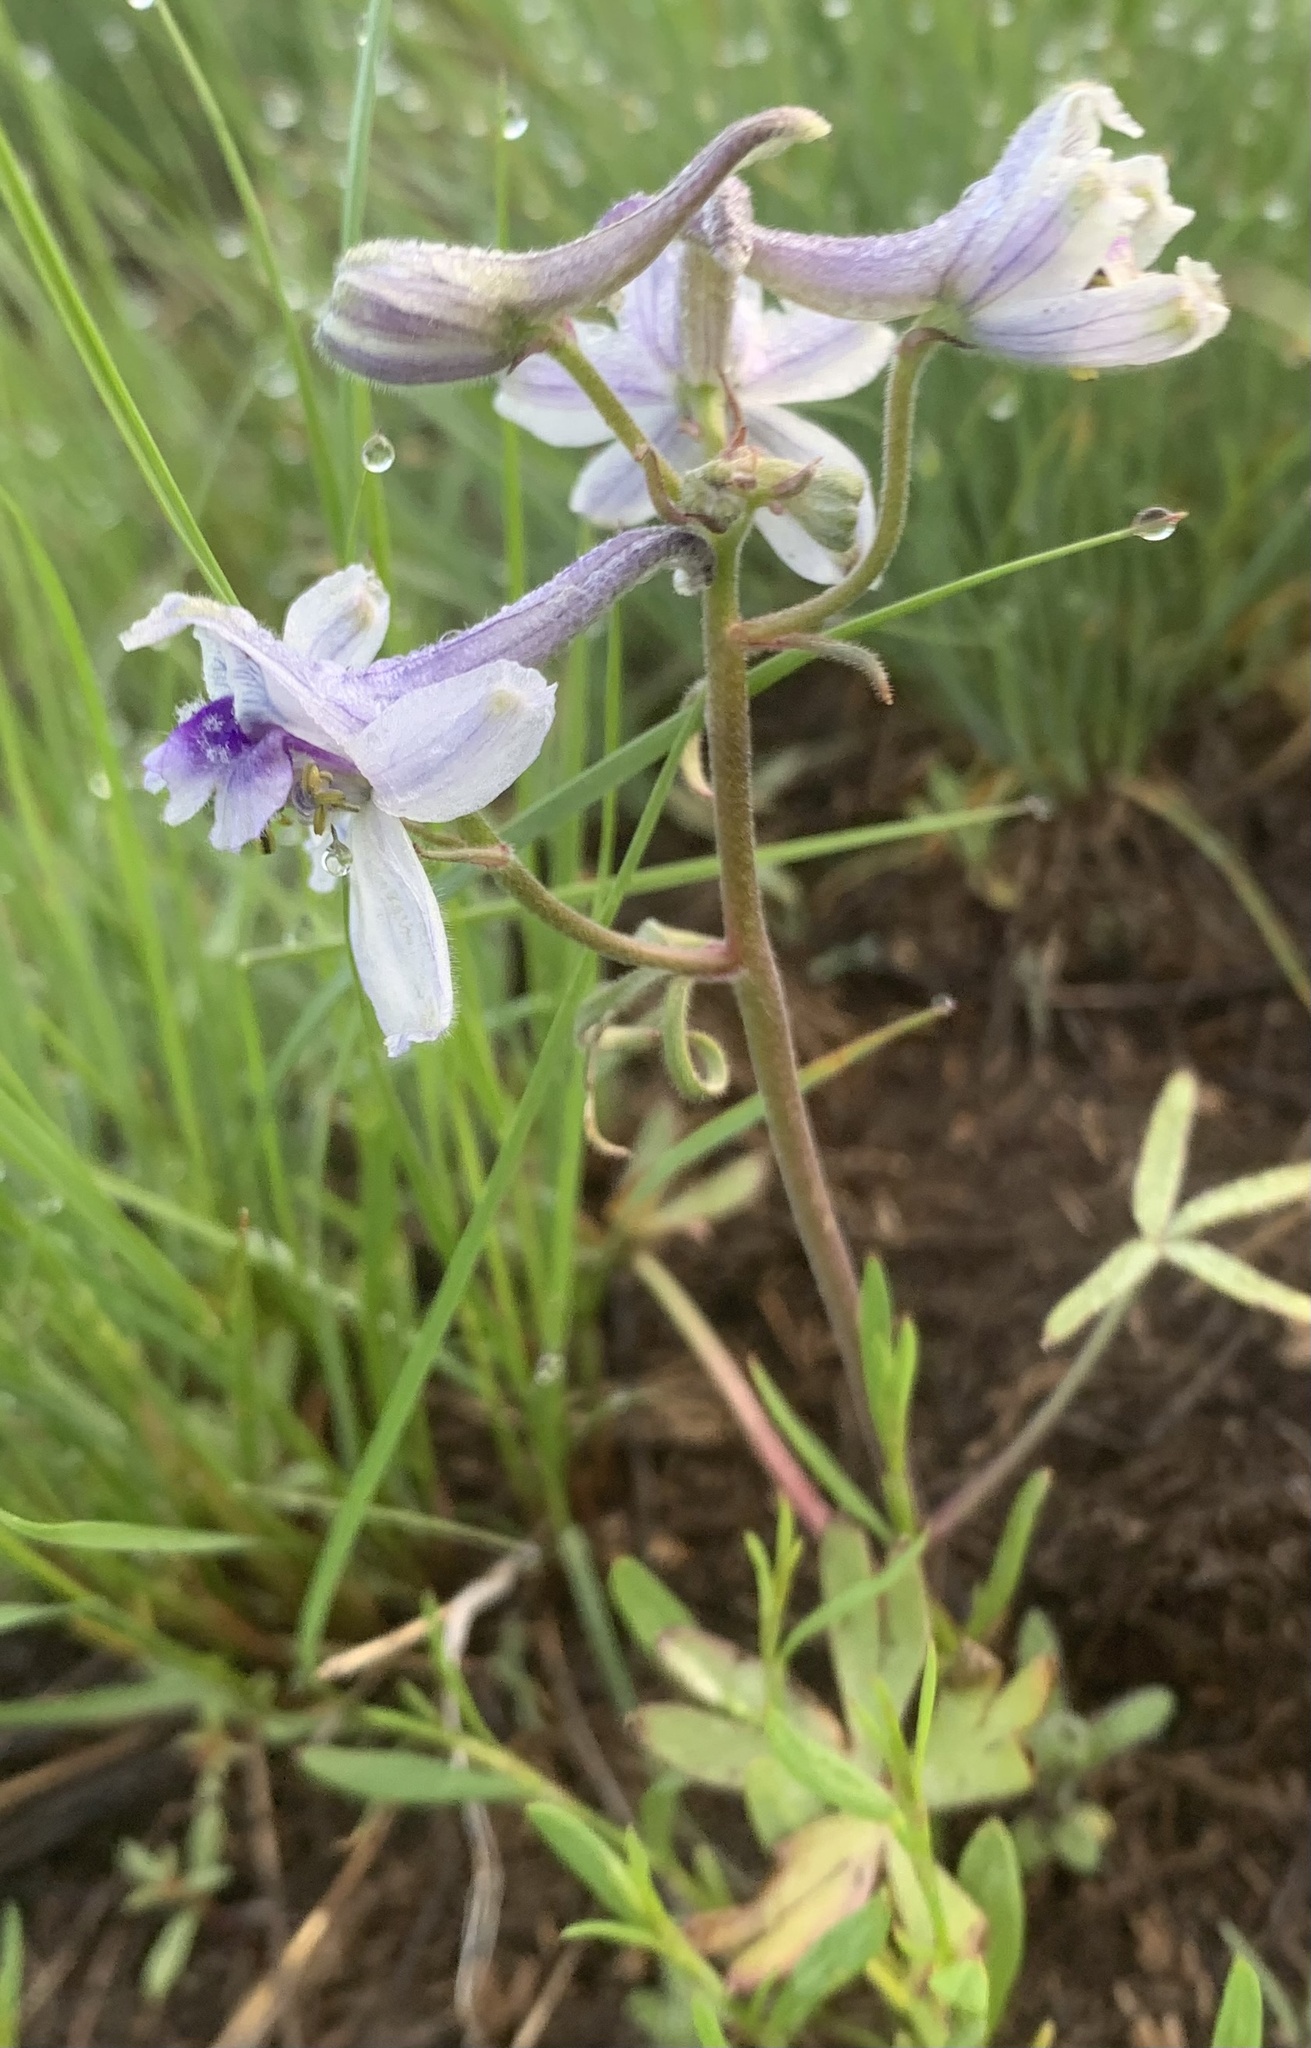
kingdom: Plantae
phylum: Tracheophyta
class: Magnoliopsida
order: Ranunculales
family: Ranunculaceae
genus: Delphinium
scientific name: Delphinium nuttallianum
